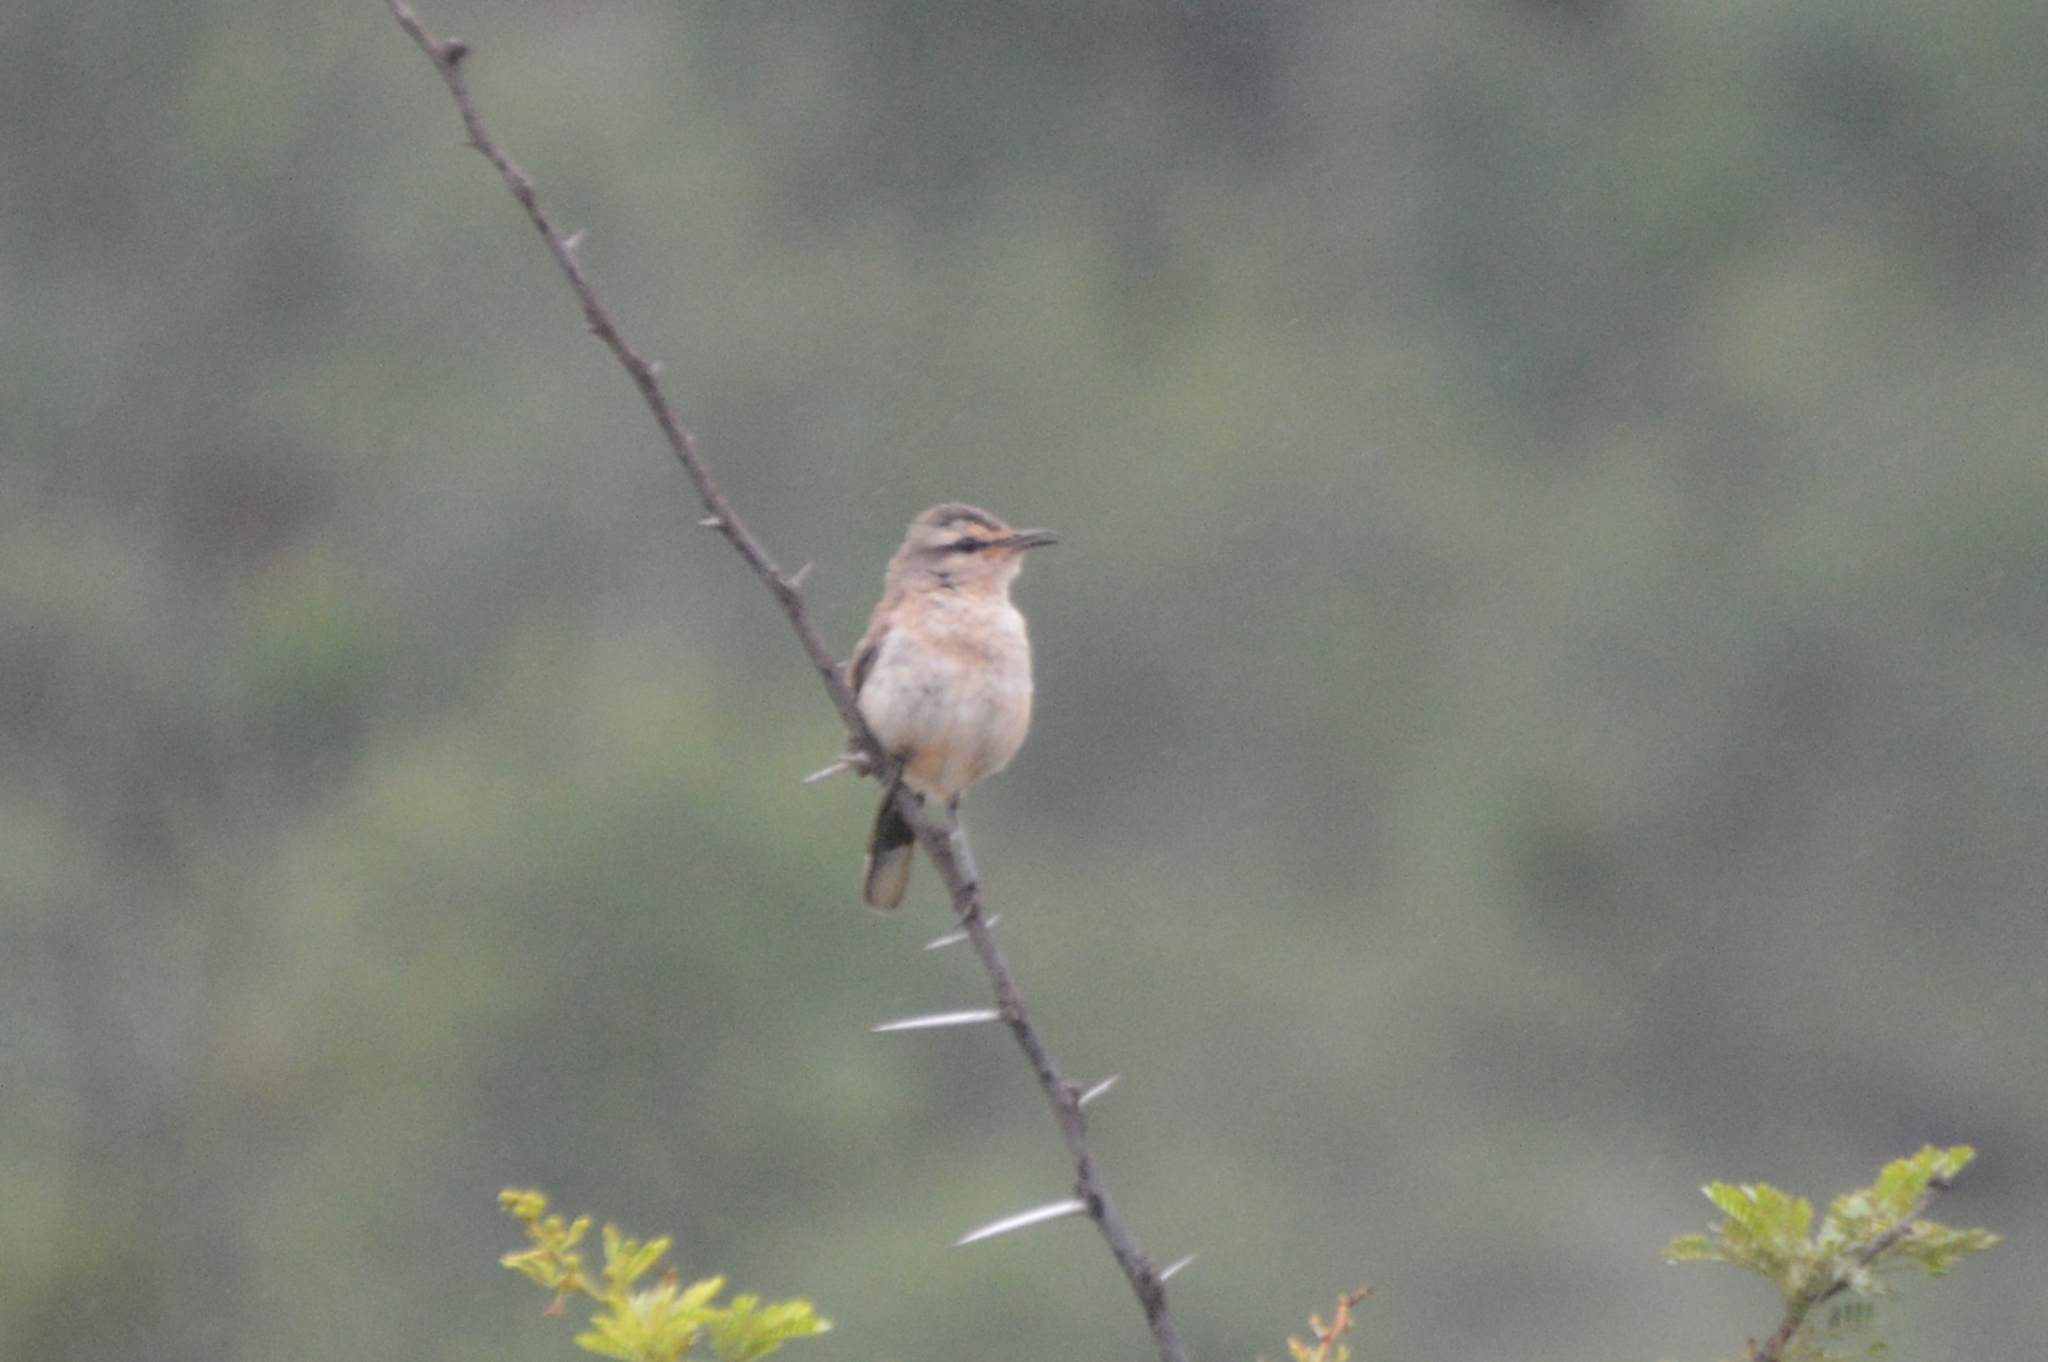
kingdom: Animalia
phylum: Chordata
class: Aves
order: Passeriformes
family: Cisticolidae
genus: Prinia
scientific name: Prinia subflava
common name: Tawny-flanked prinia
